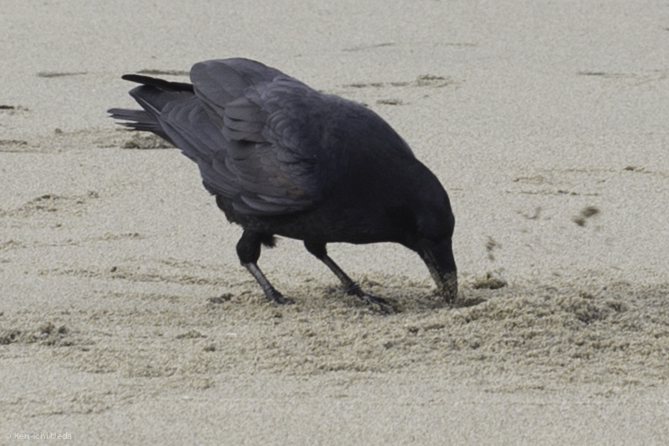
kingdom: Animalia
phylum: Chordata
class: Aves
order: Passeriformes
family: Corvidae
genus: Corvus
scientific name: Corvus corax
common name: Common raven
